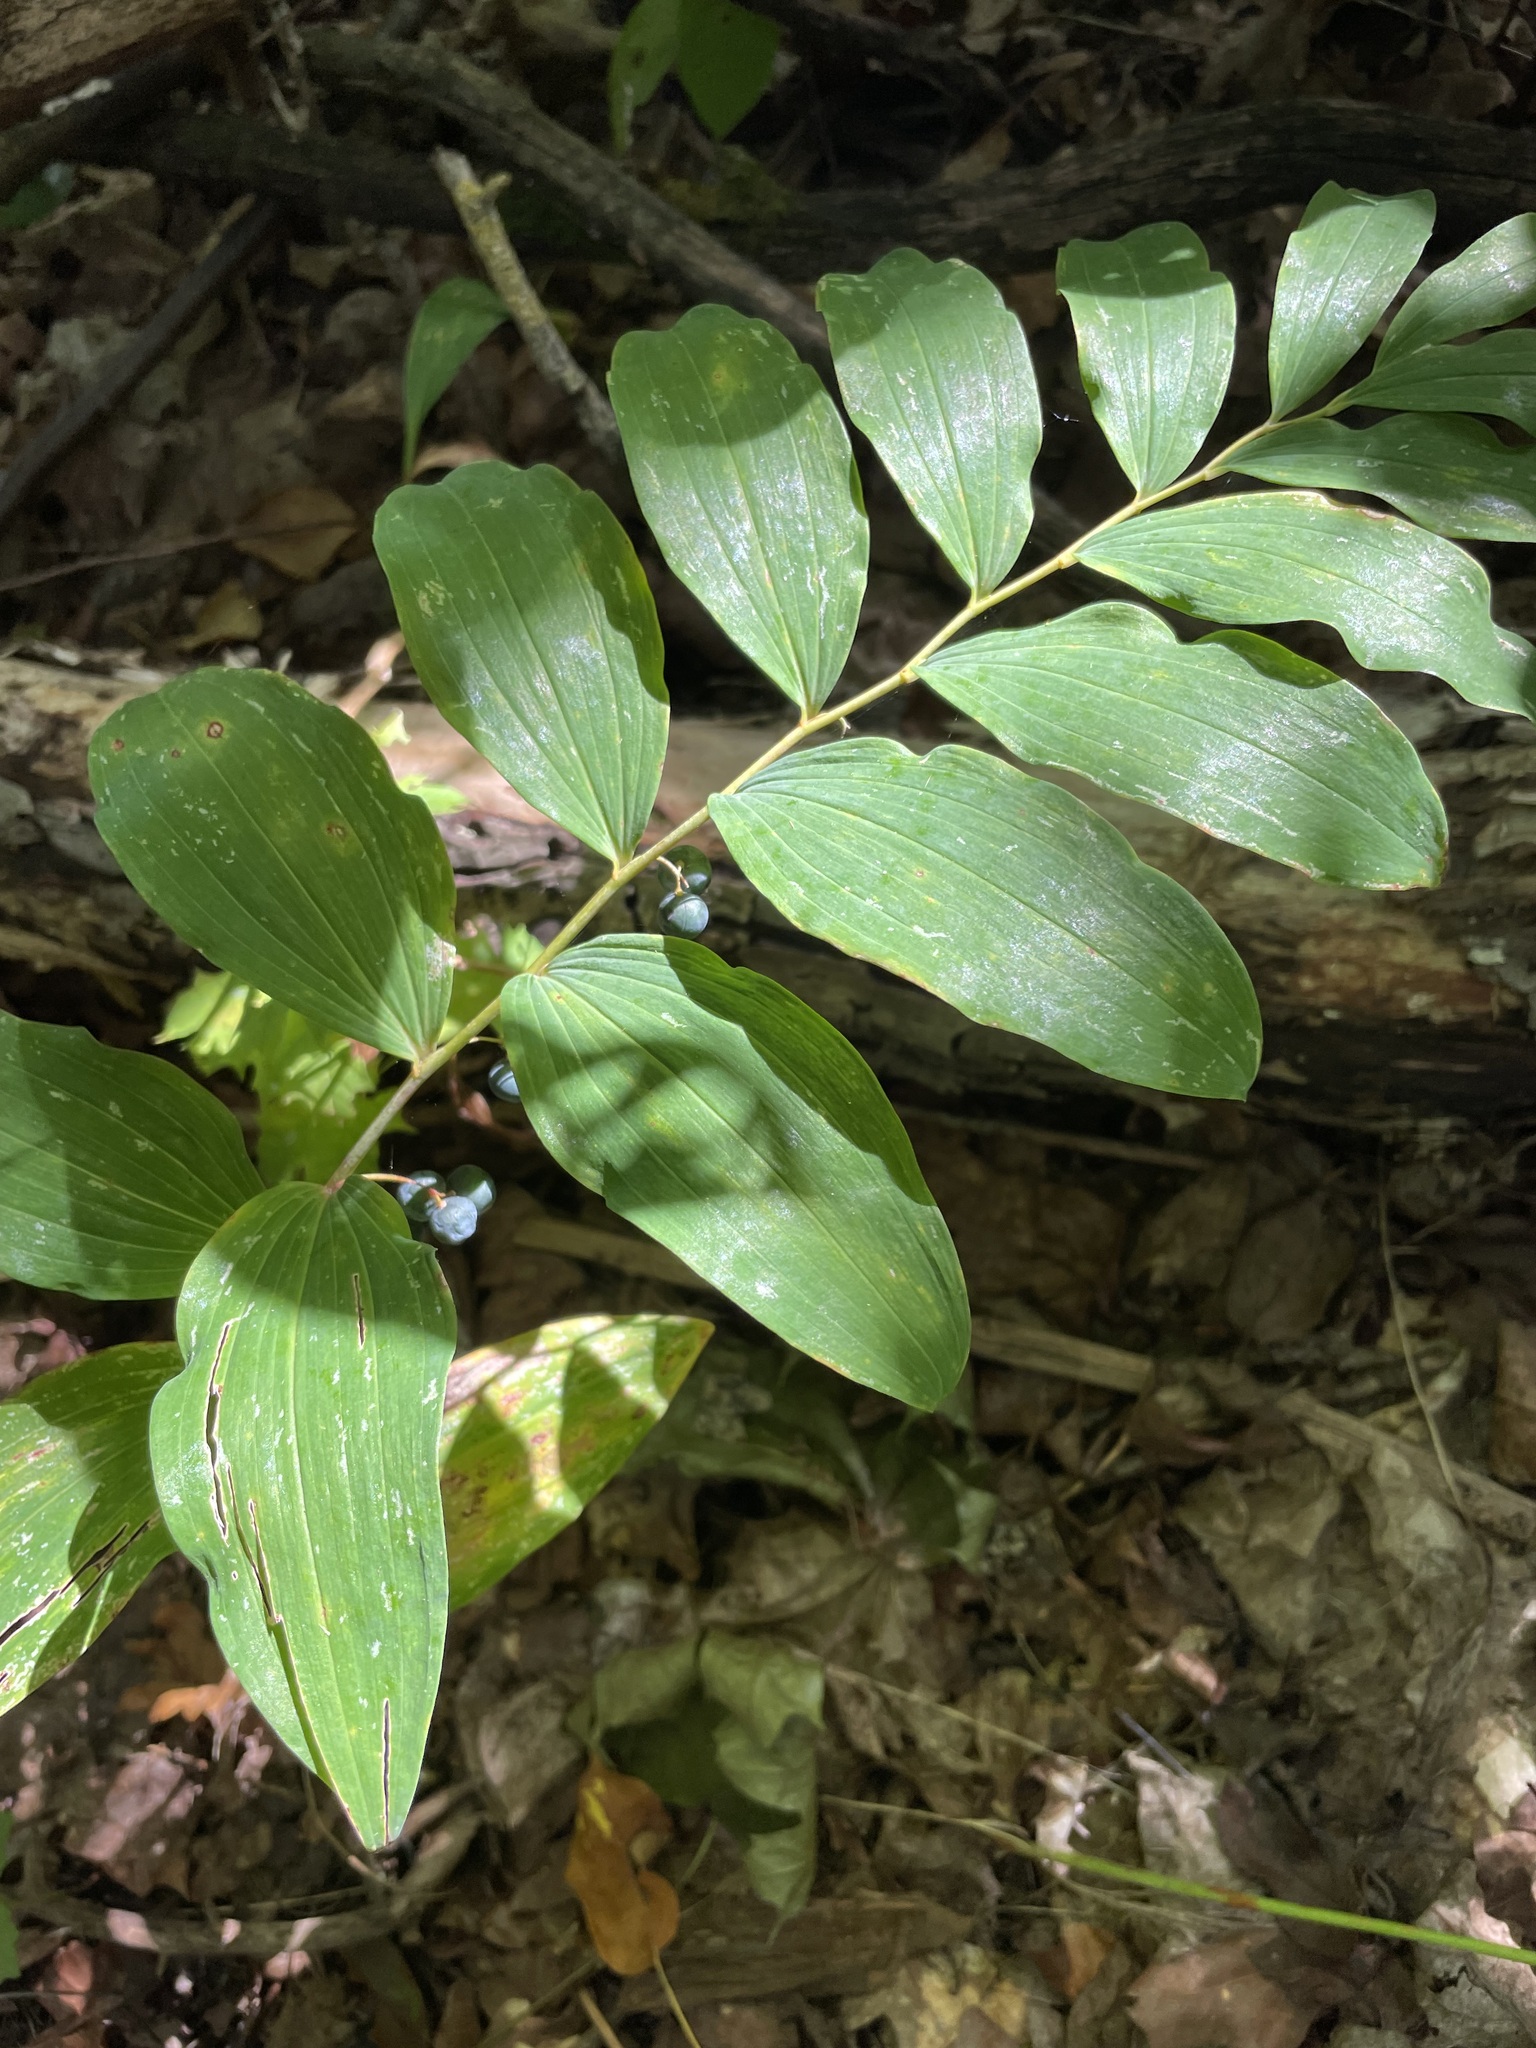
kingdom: Plantae
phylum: Tracheophyta
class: Liliopsida
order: Asparagales
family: Asparagaceae
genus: Polygonatum
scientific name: Polygonatum multiflorum
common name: Solomon's-seal
